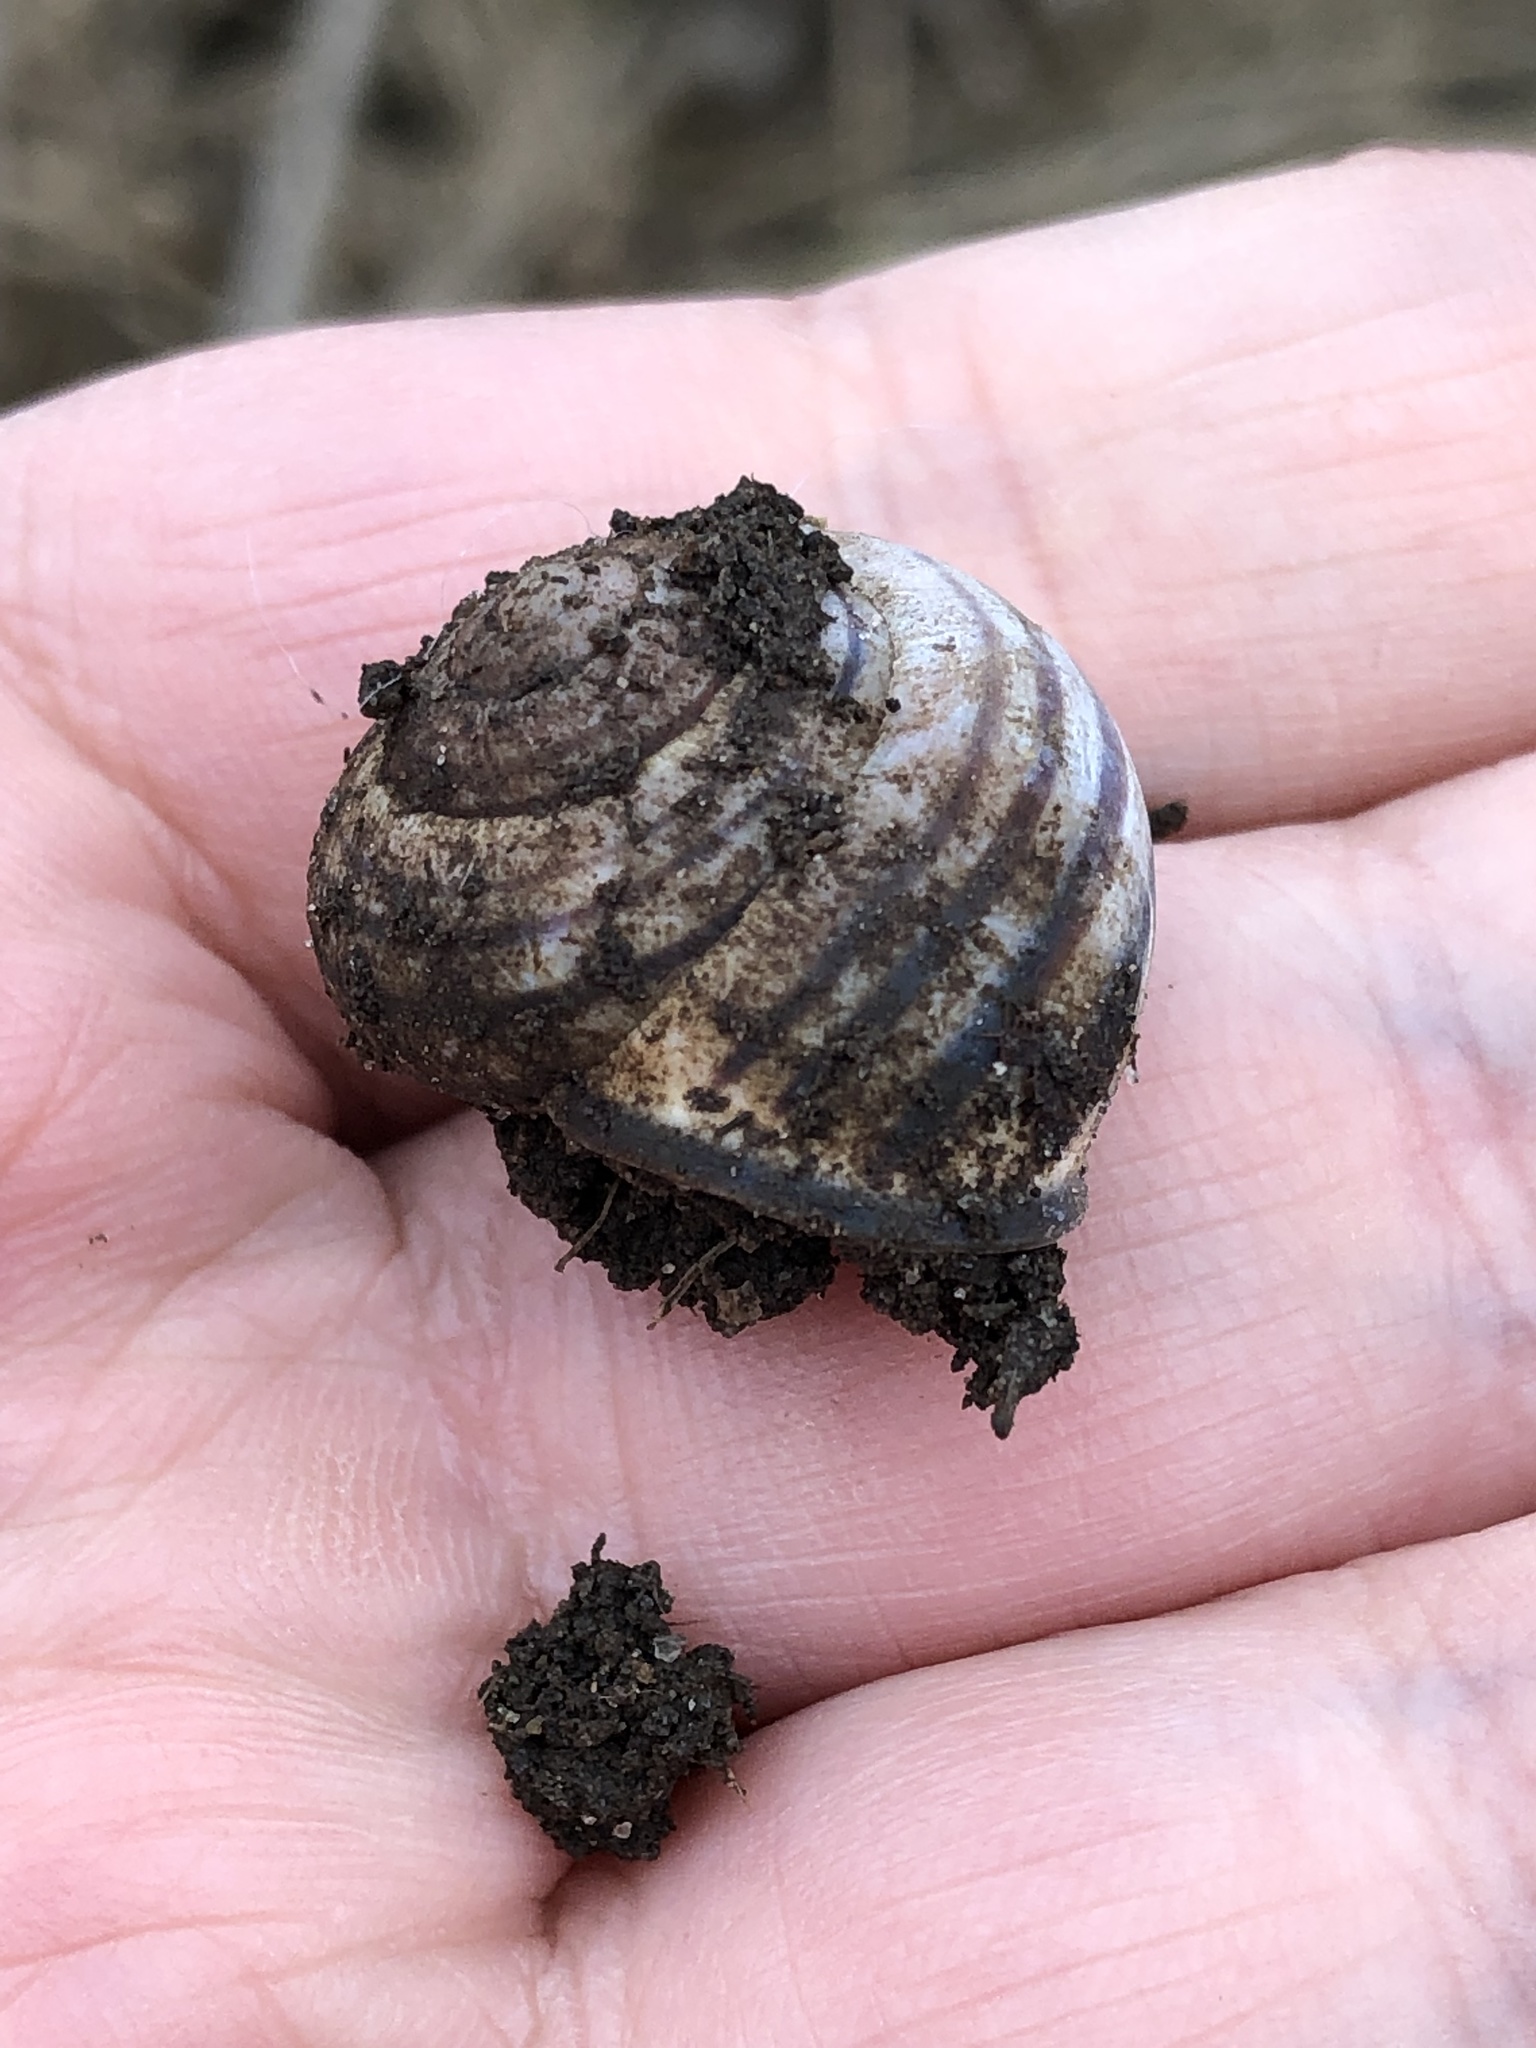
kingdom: Animalia
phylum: Mollusca
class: Gastropoda
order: Stylommatophora
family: Helicidae
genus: Cepaea
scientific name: Cepaea nemoralis
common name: Grovesnail
